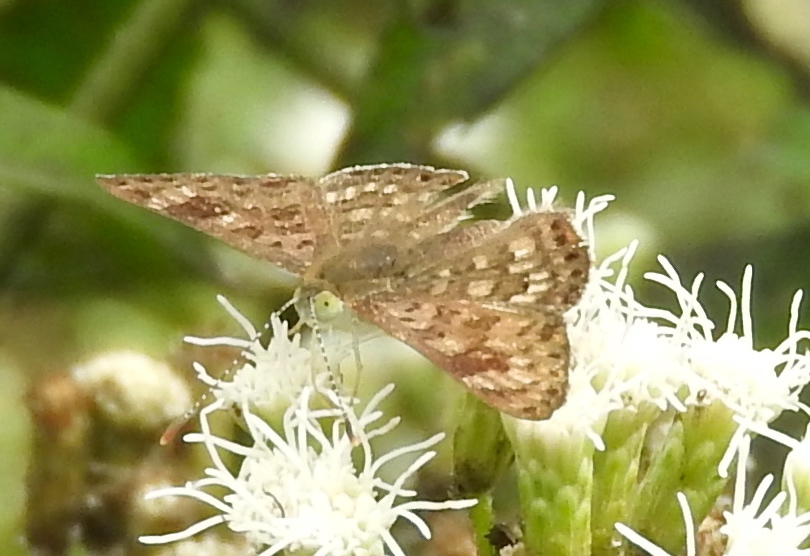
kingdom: Animalia
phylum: Arthropoda
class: Insecta
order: Lepidoptera
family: Riodinidae
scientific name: Riodinidae
